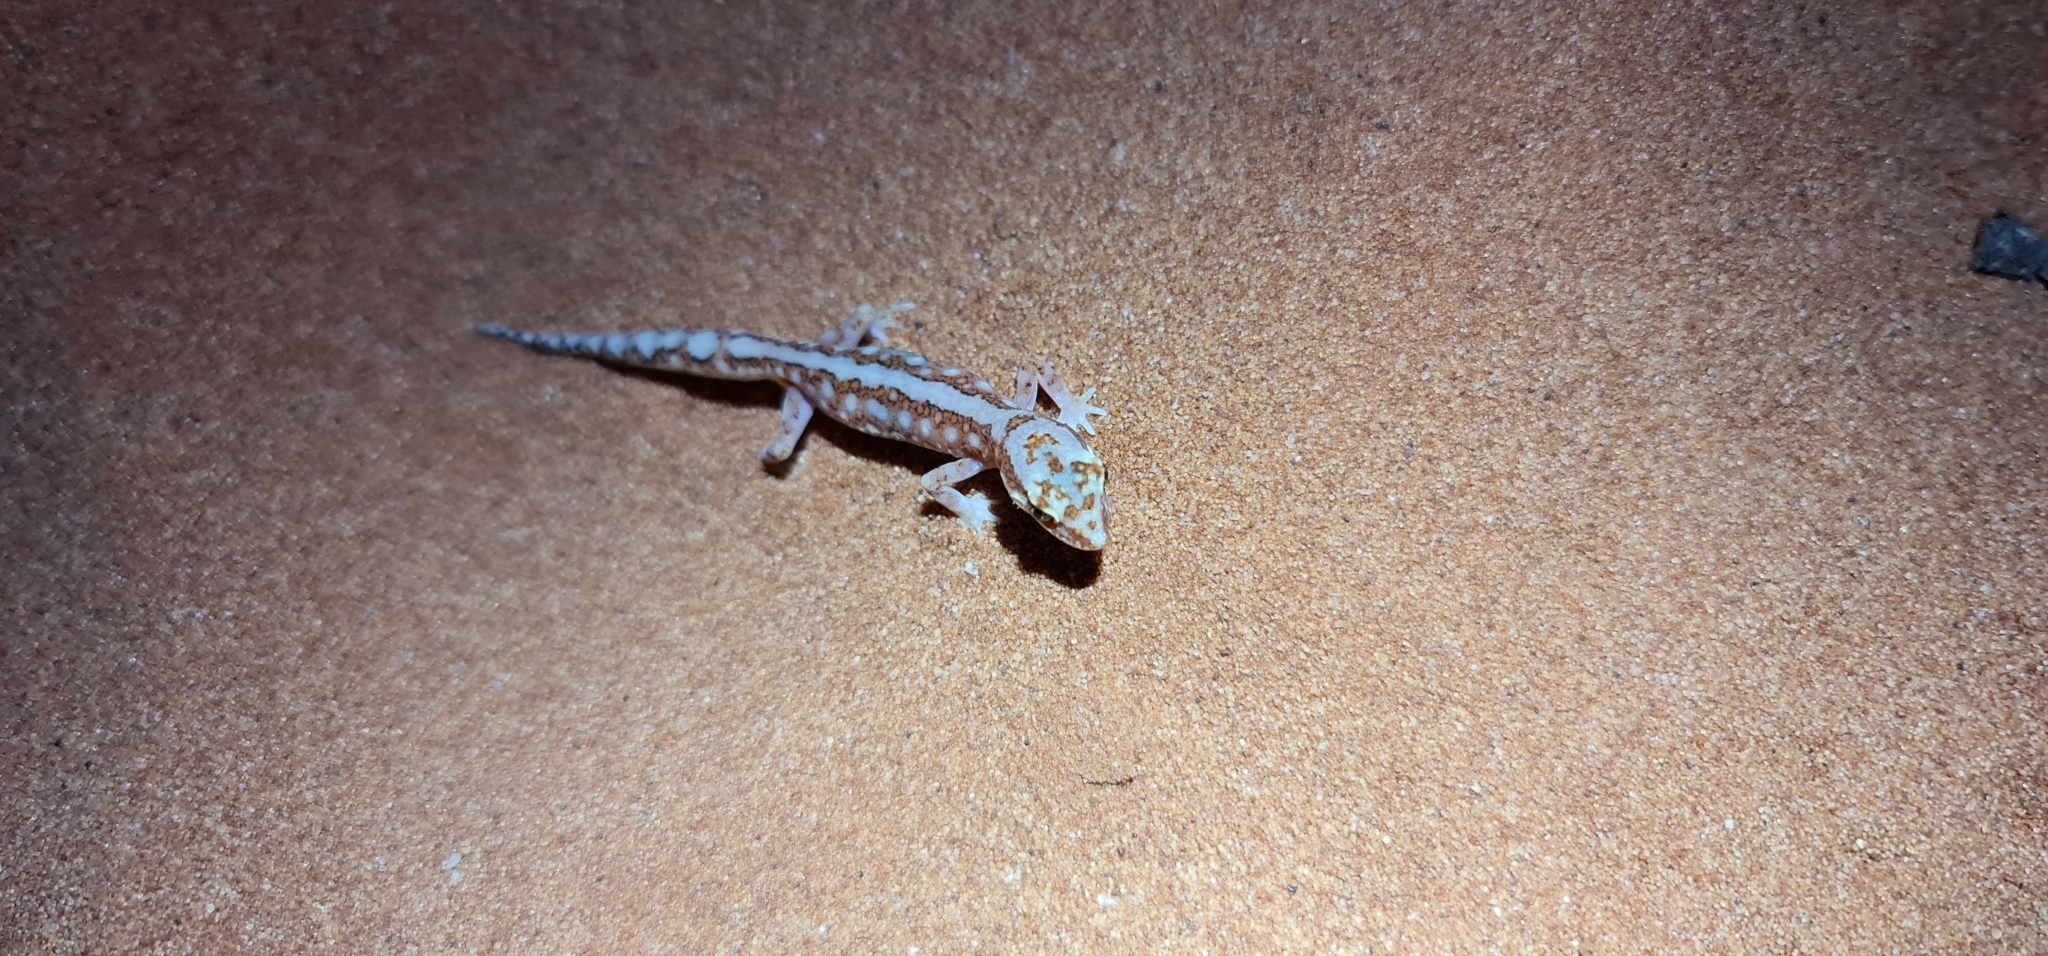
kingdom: Animalia
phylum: Chordata
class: Squamata
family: Diplodactylidae
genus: Lucasium
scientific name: Lucasium damaeum
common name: Beaded gecko
